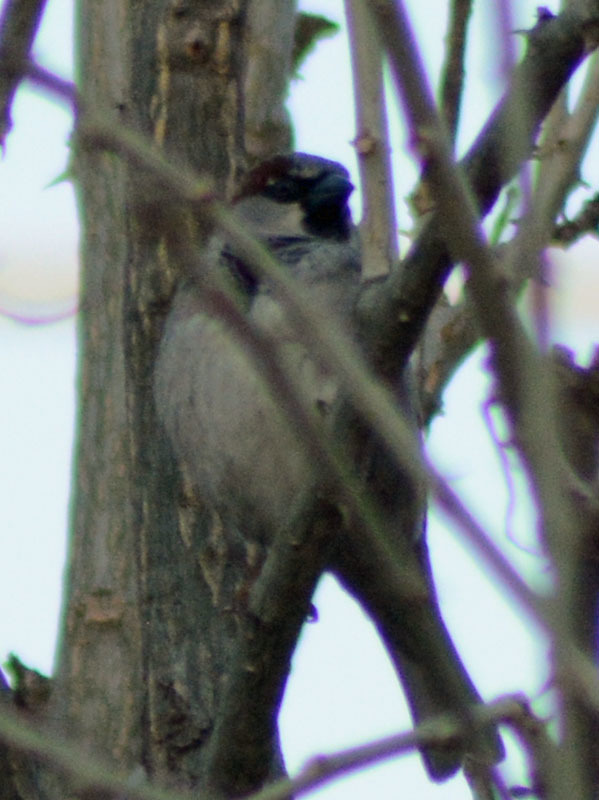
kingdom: Animalia
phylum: Chordata
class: Aves
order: Passeriformes
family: Passeridae
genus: Passer
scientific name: Passer domesticus
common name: House sparrow
